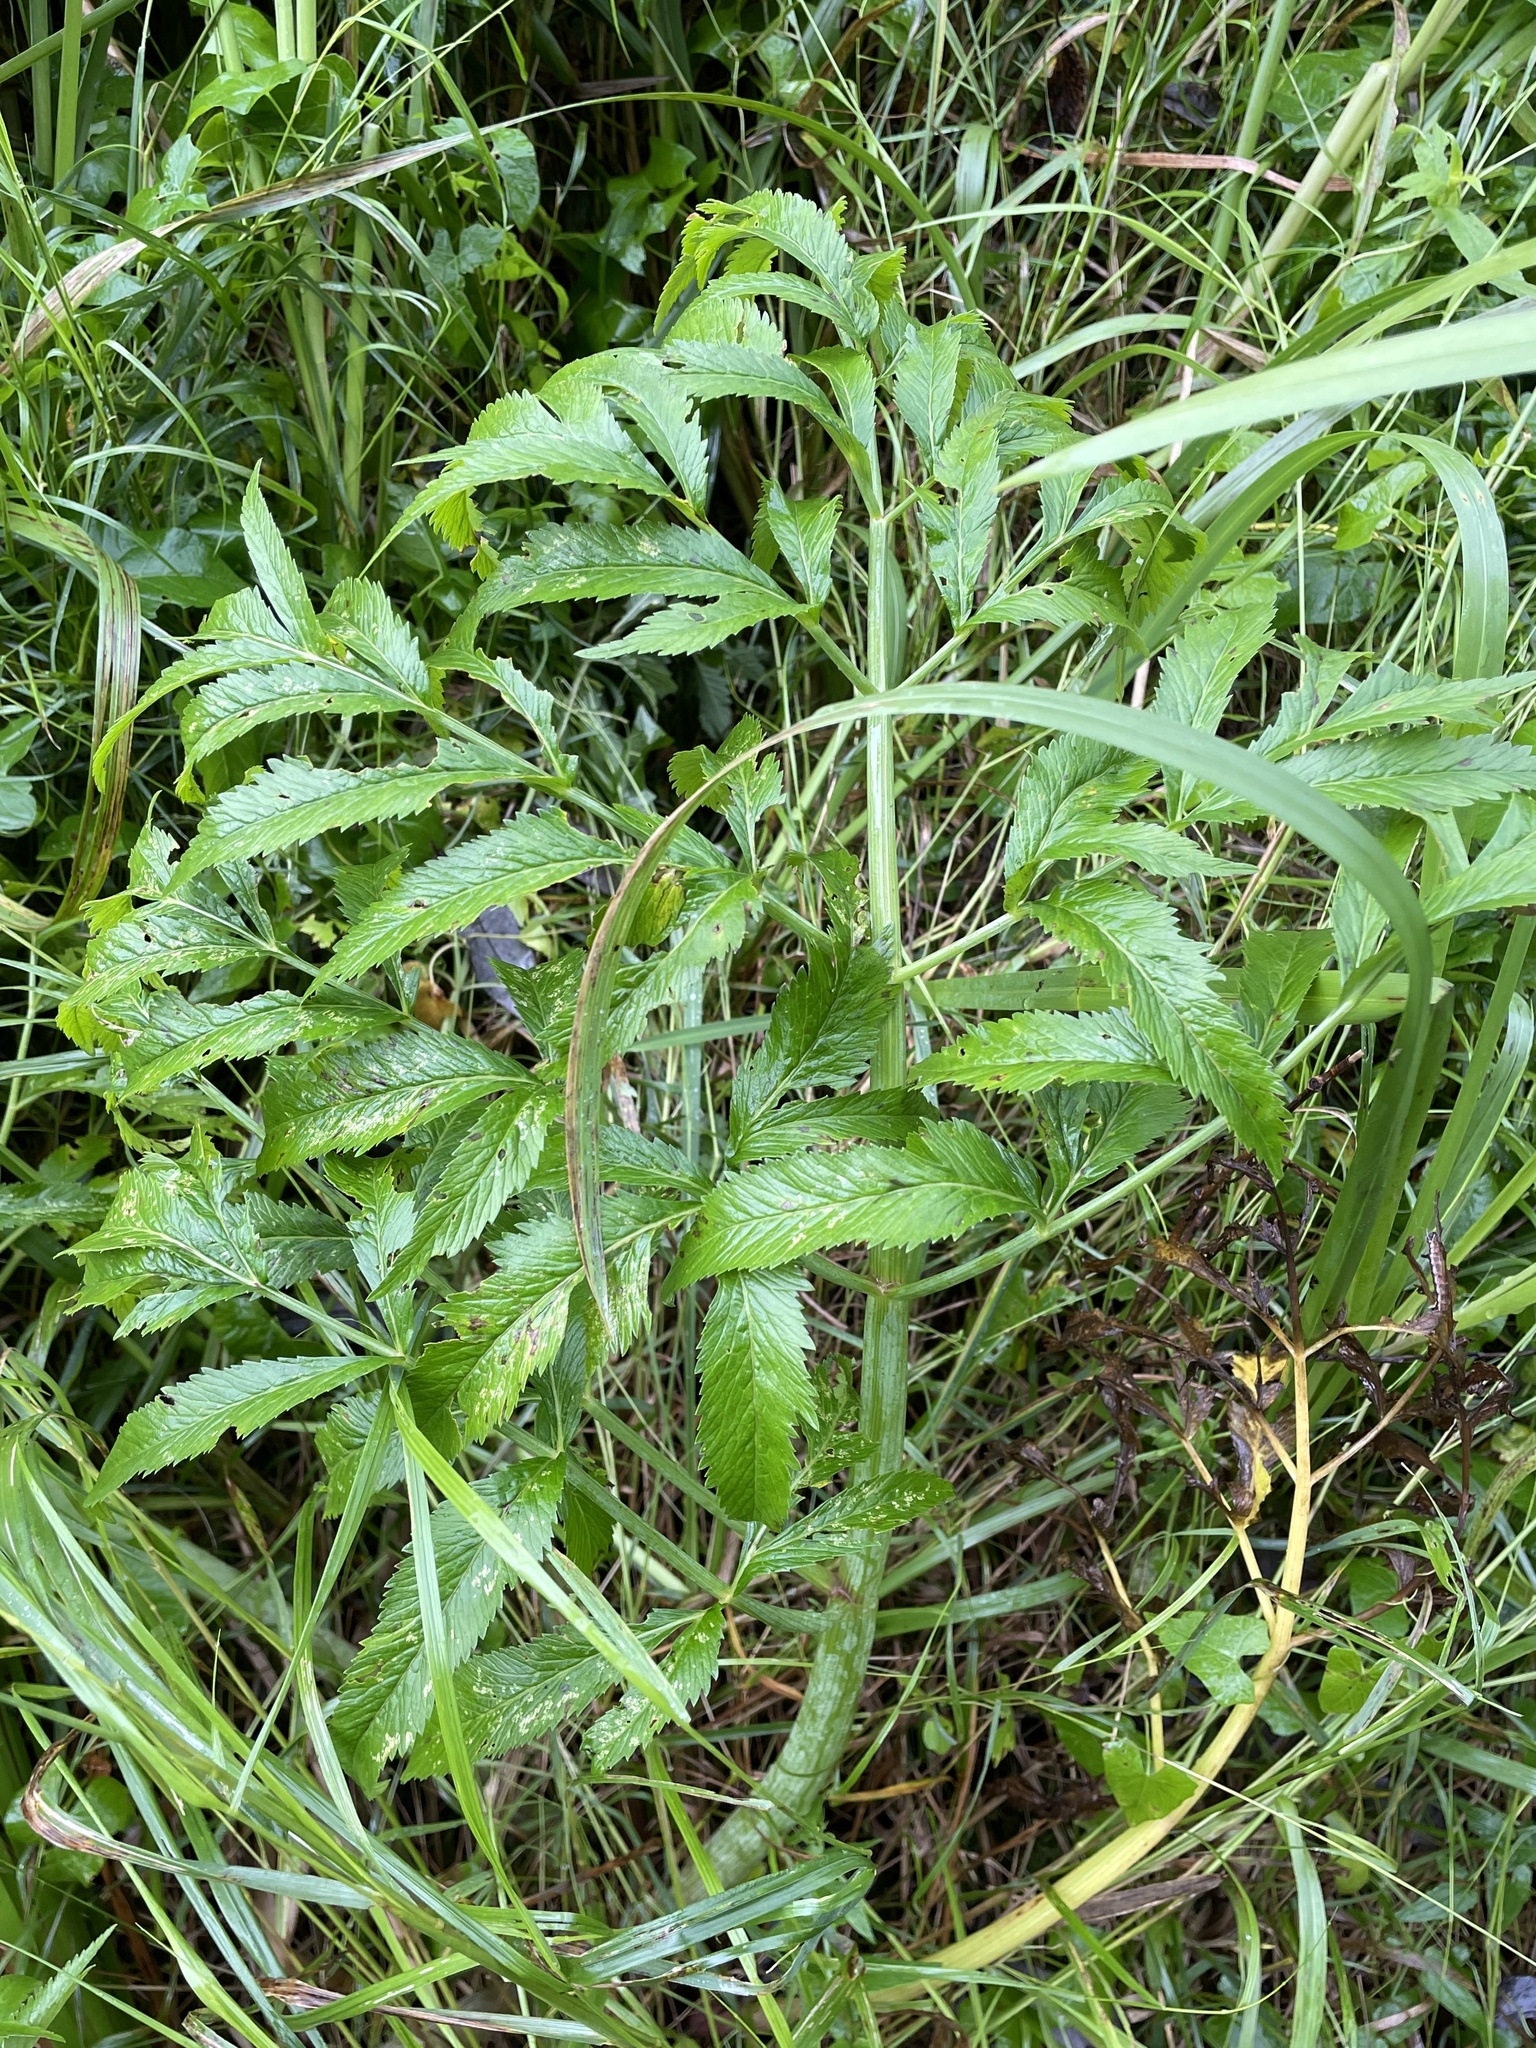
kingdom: Plantae
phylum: Tracheophyta
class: Magnoliopsida
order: Apiales
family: Apiaceae
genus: Cicuta
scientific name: Cicuta virosa
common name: Cowbane
